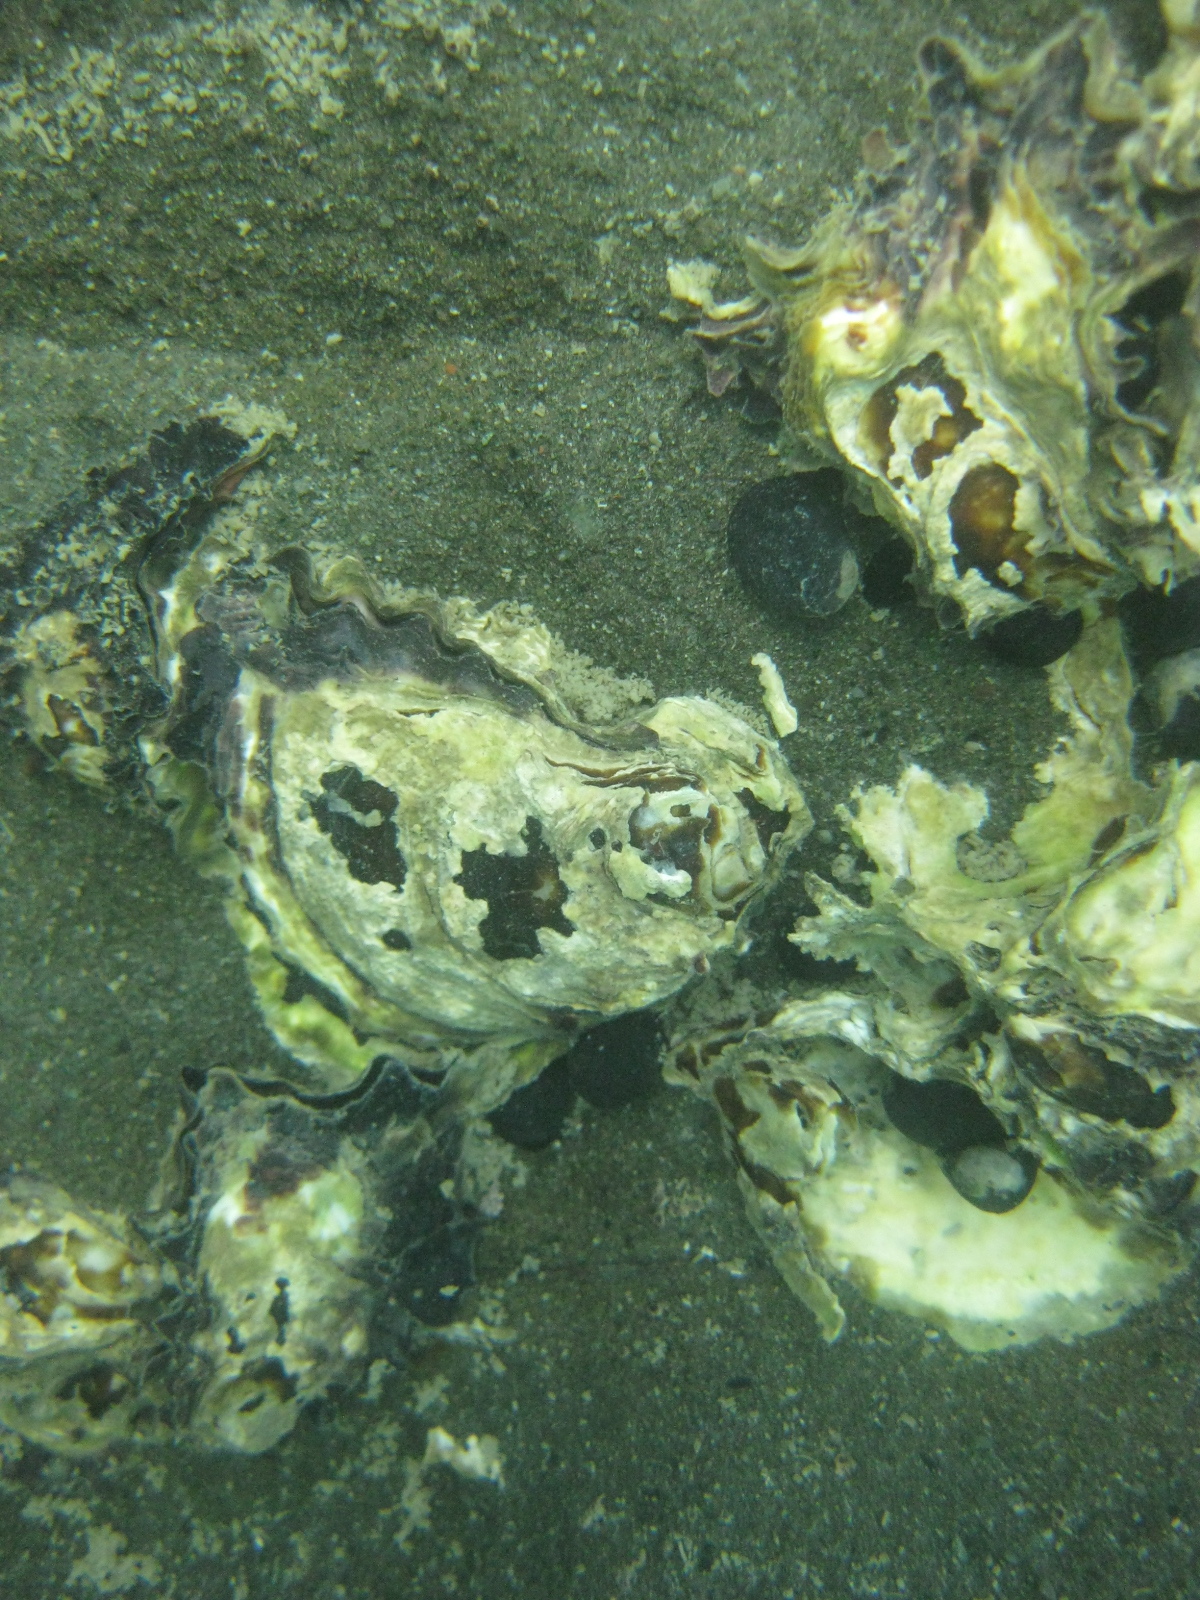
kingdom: Animalia
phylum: Mollusca
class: Gastropoda
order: Cycloneritida
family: Neritidae
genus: Nerita
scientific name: Nerita melanotragus
